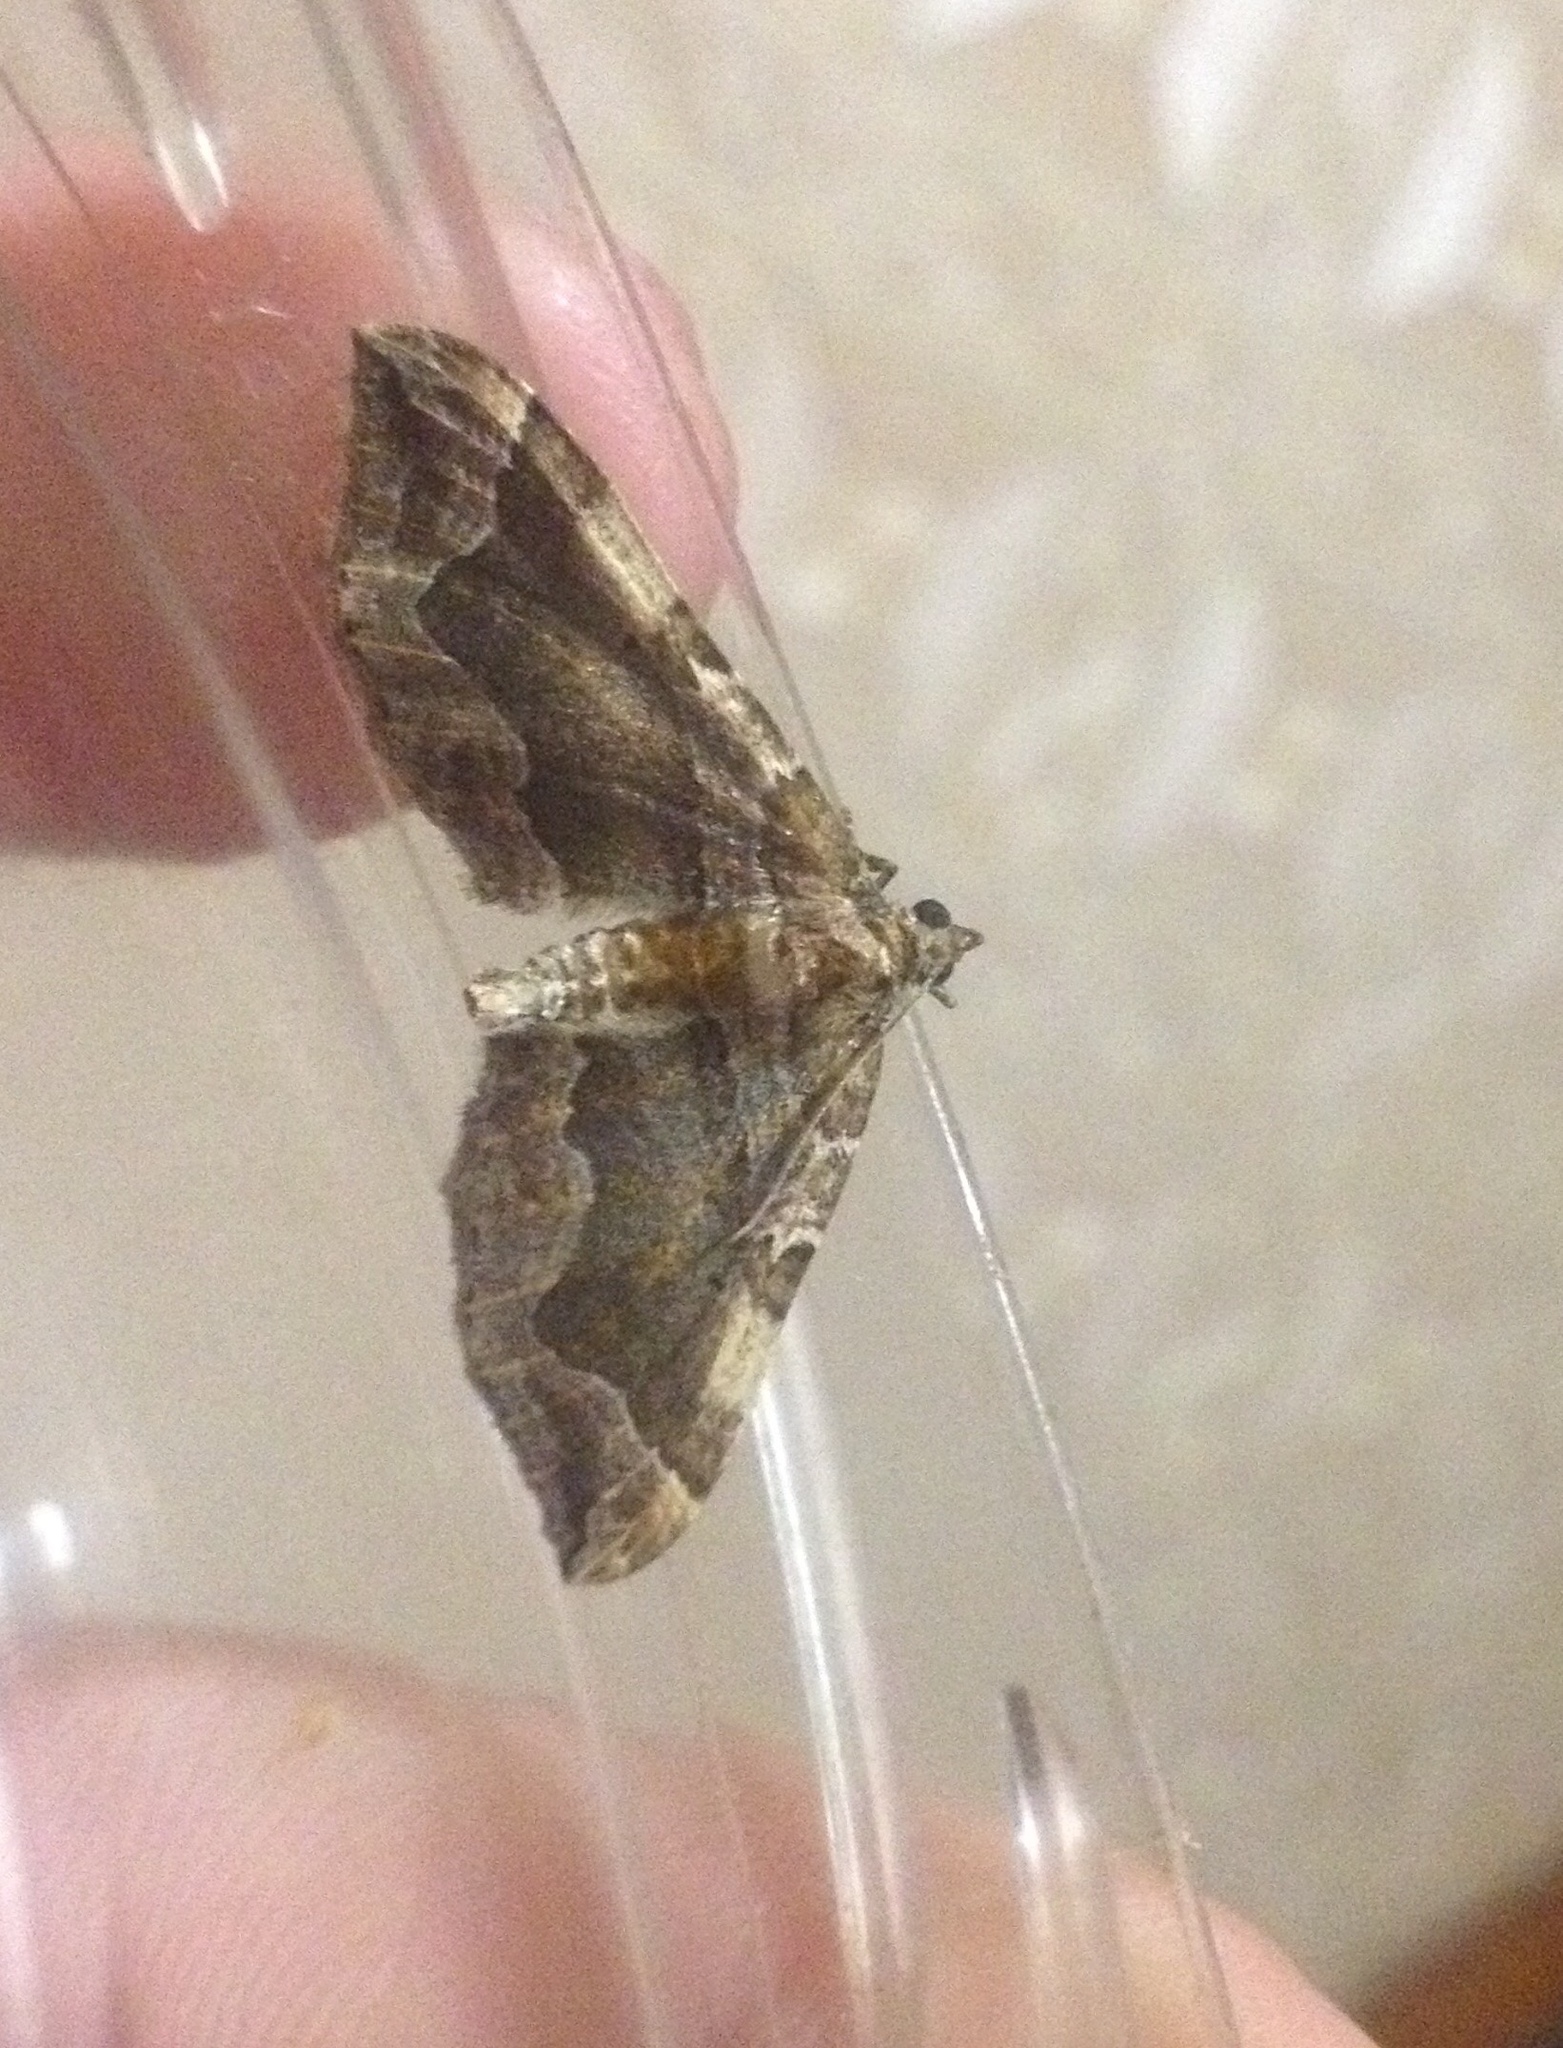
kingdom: Animalia
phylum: Arthropoda
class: Insecta
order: Lepidoptera
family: Geometridae
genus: Pelurga
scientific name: Pelurga comitata
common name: Dark spinach
